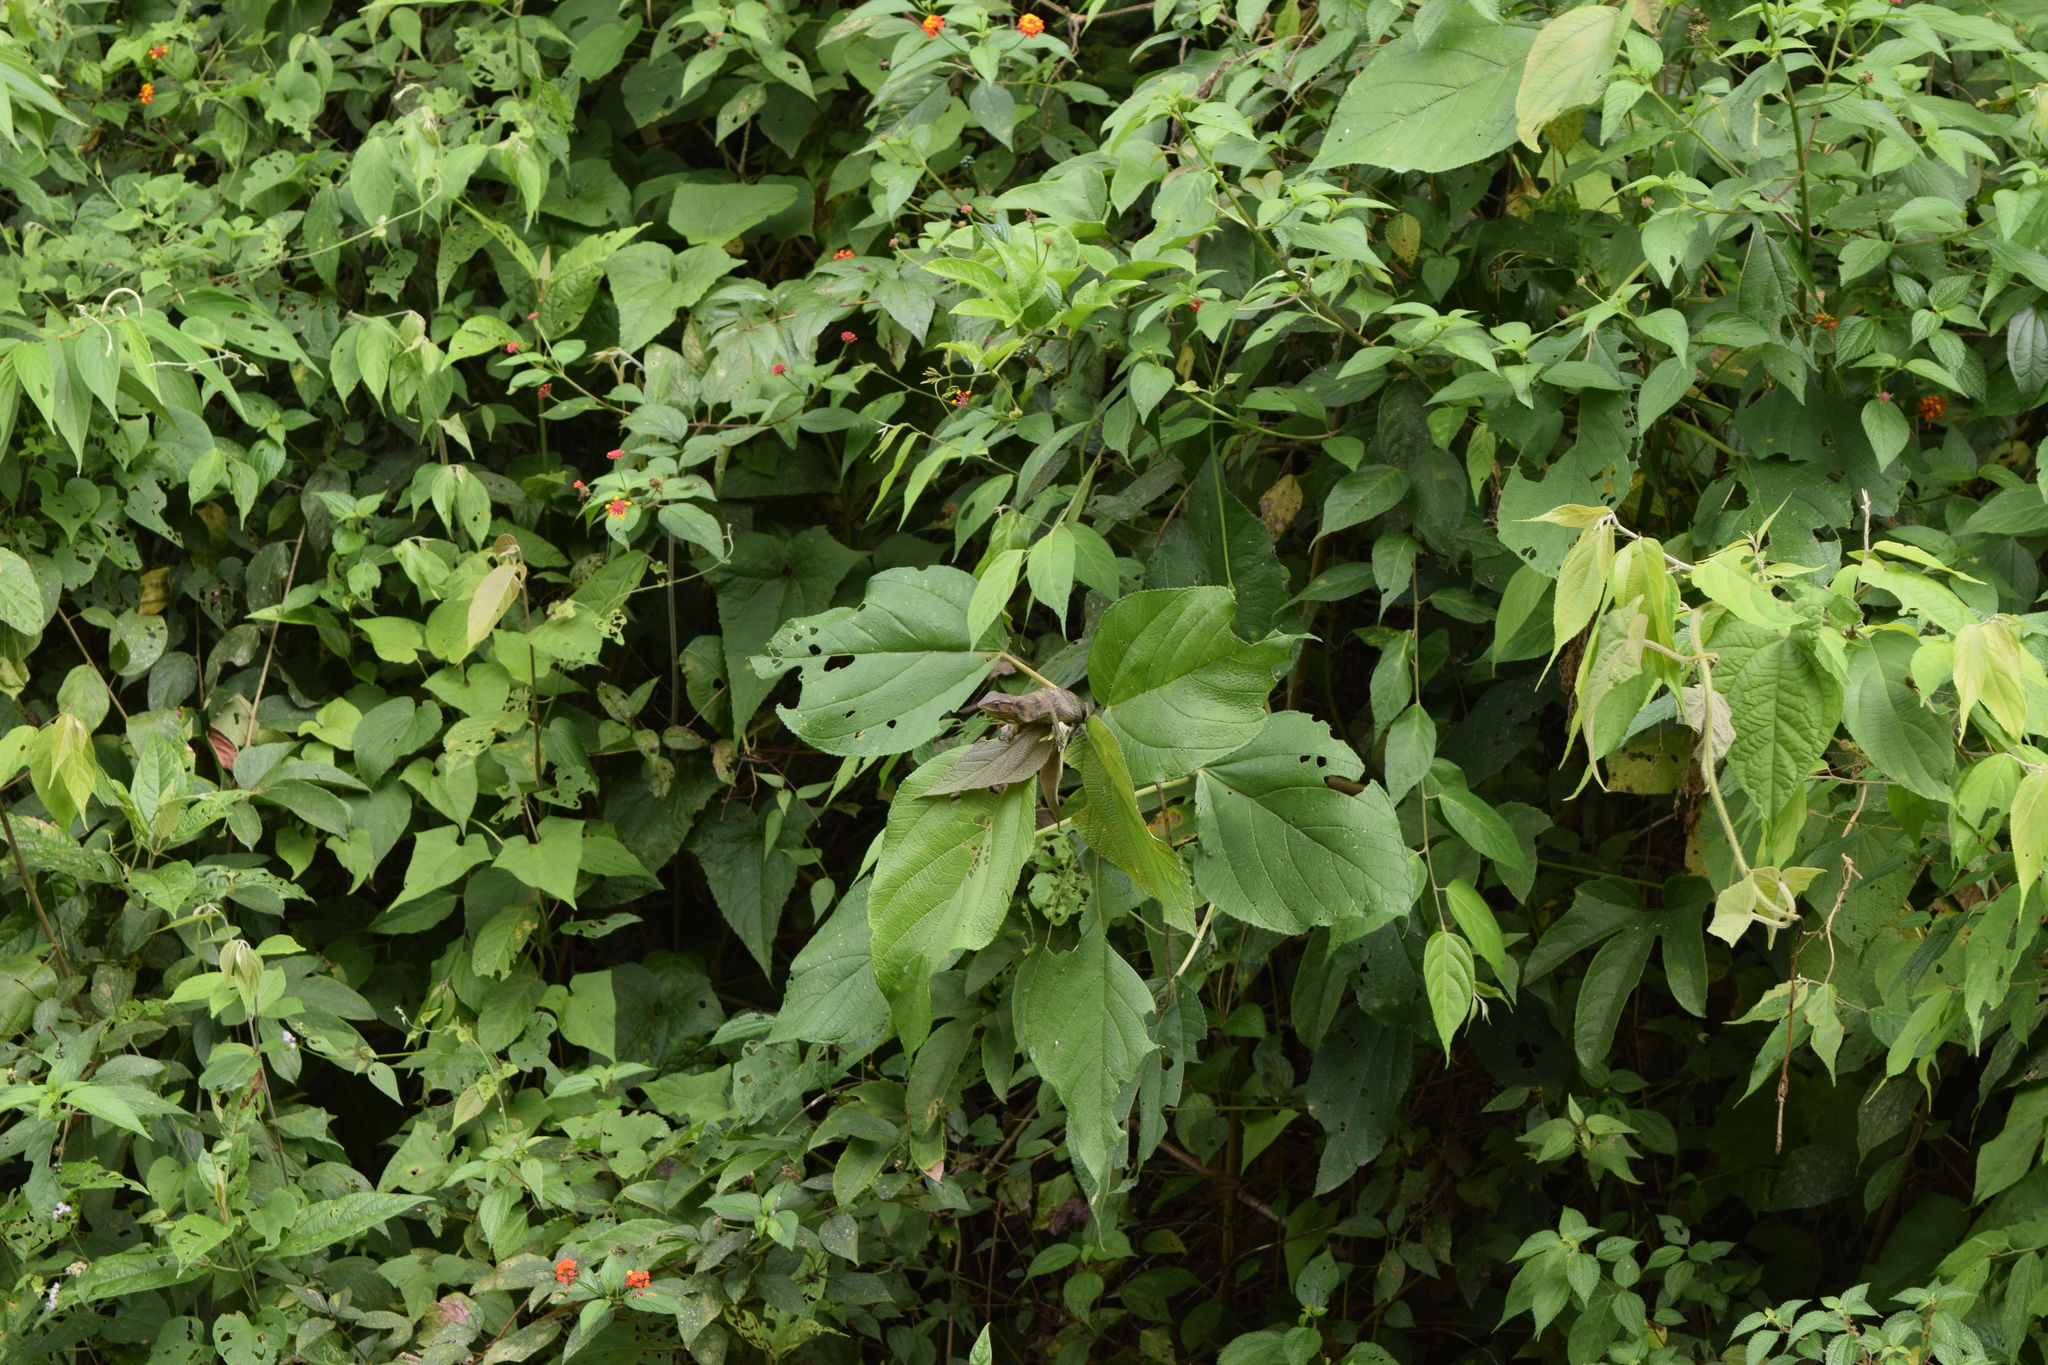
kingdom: Animalia
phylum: Chordata
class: Squamata
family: Polychrotidae
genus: Polychrus
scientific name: Polychrus gutturosus
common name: Berthold's bush anole
